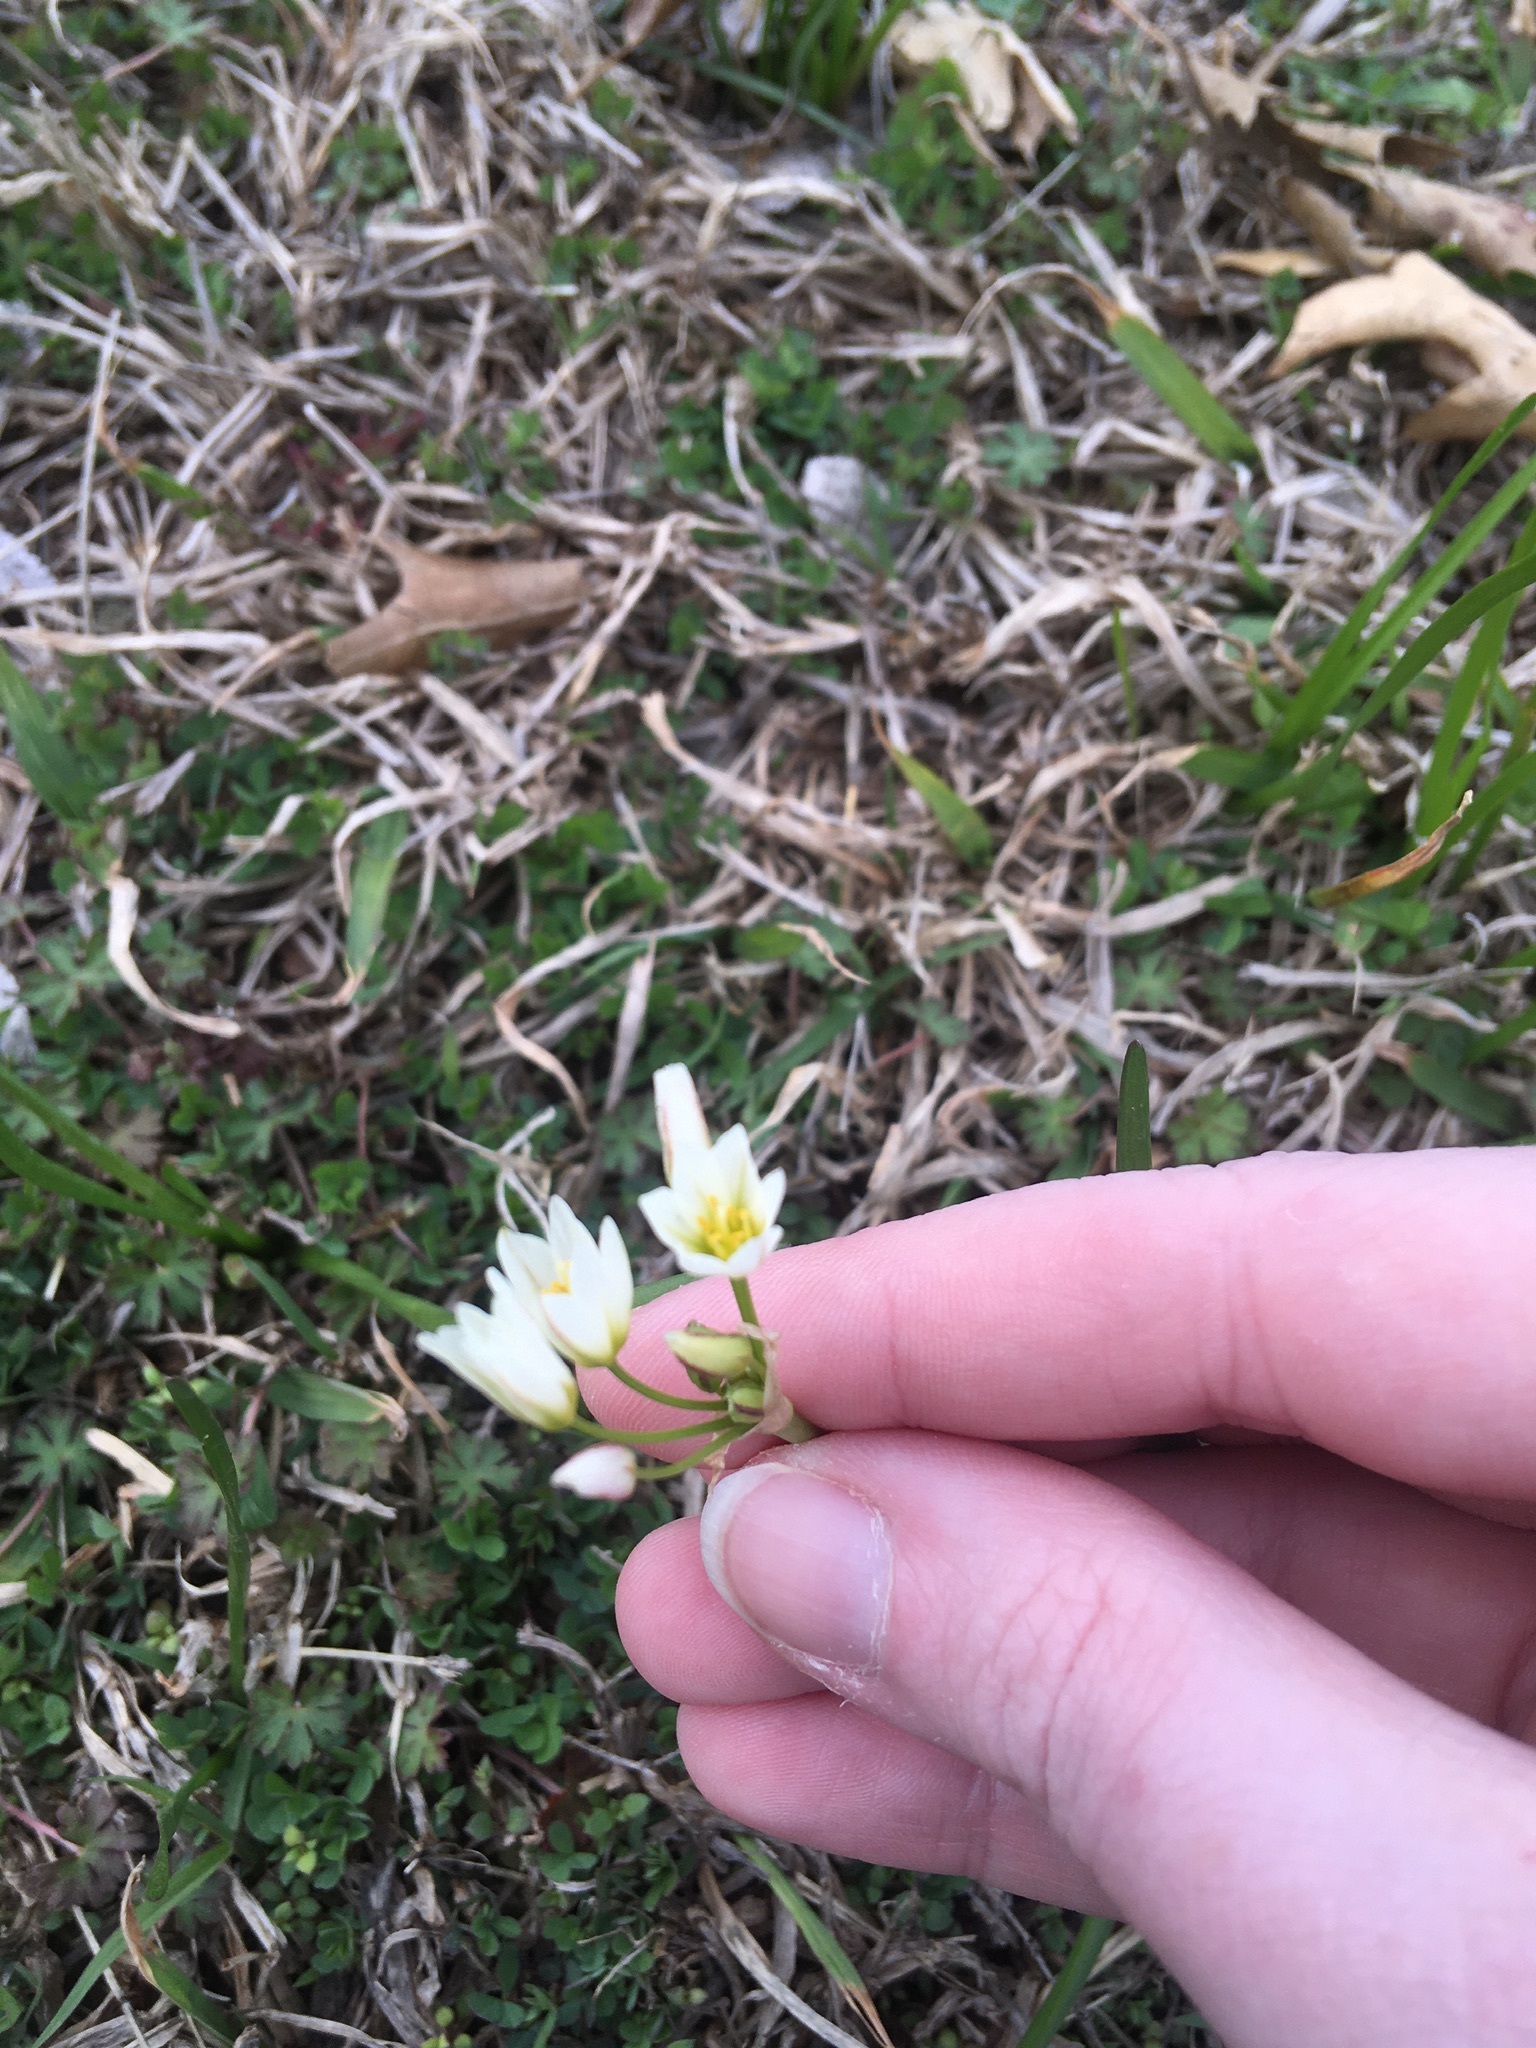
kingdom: Plantae
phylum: Tracheophyta
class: Liliopsida
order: Asparagales
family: Amaryllidaceae
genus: Nothoscordum
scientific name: Nothoscordum bivalve
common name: Crow-poison
